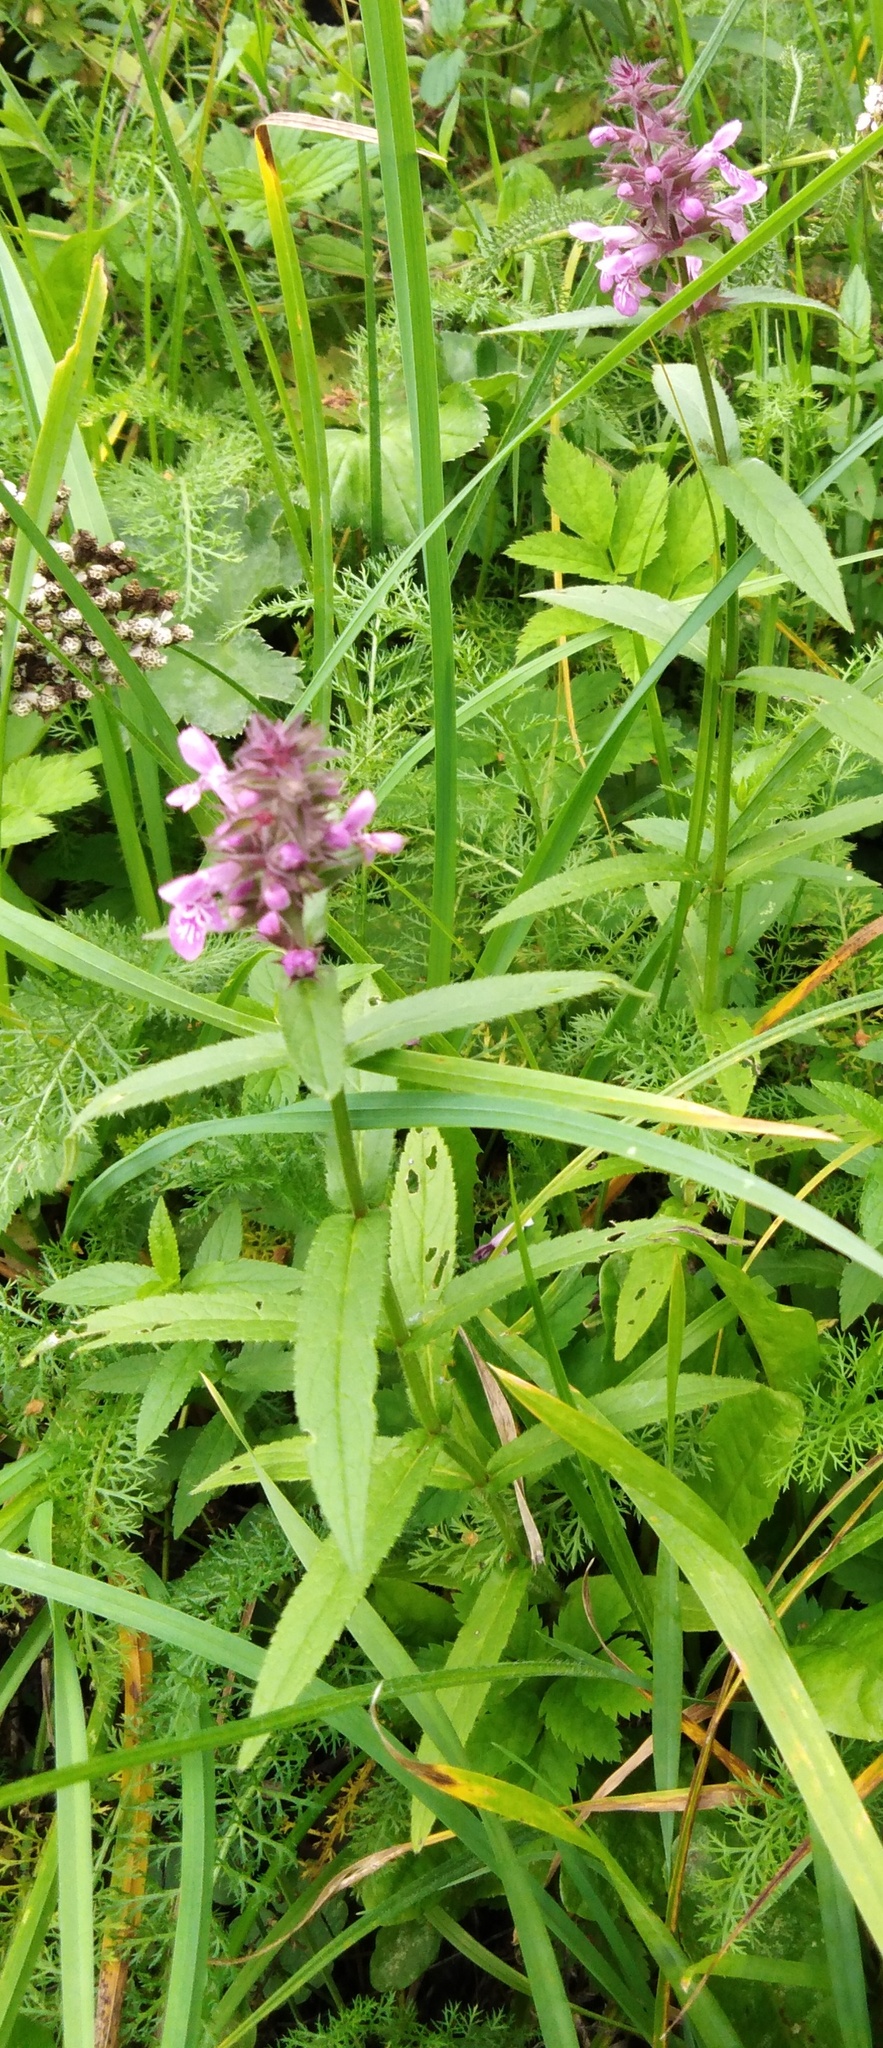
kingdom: Plantae
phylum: Tracheophyta
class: Magnoliopsida
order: Lamiales
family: Lamiaceae
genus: Stachys
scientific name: Stachys palustris
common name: Marsh woundwort
